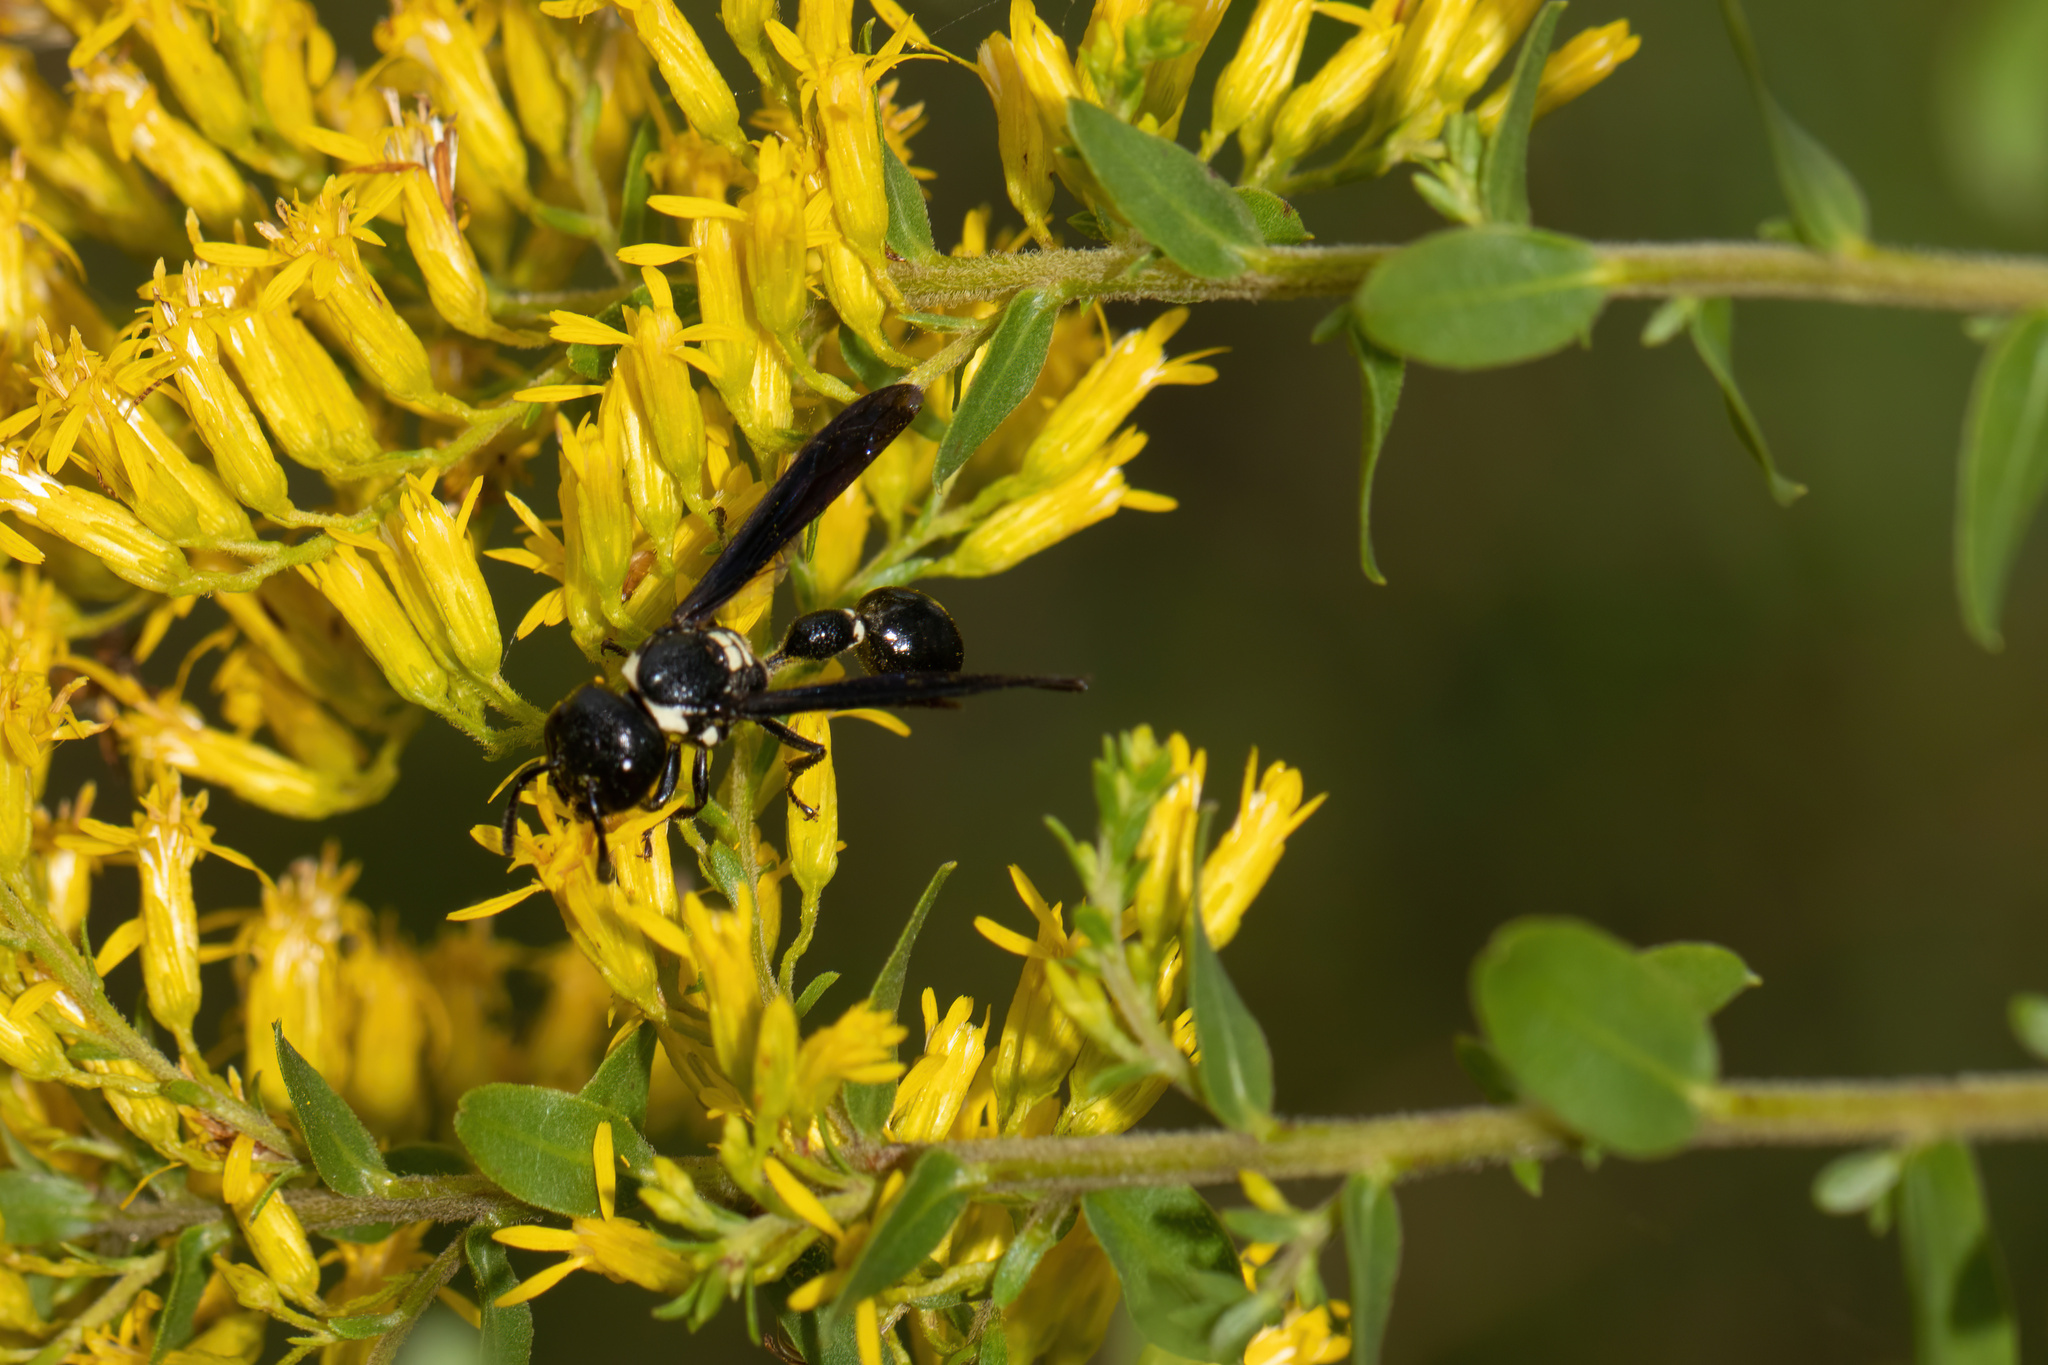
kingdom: Animalia
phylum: Arthropoda
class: Insecta
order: Hymenoptera
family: Eumenidae
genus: Zethus
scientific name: Zethus spinipes
